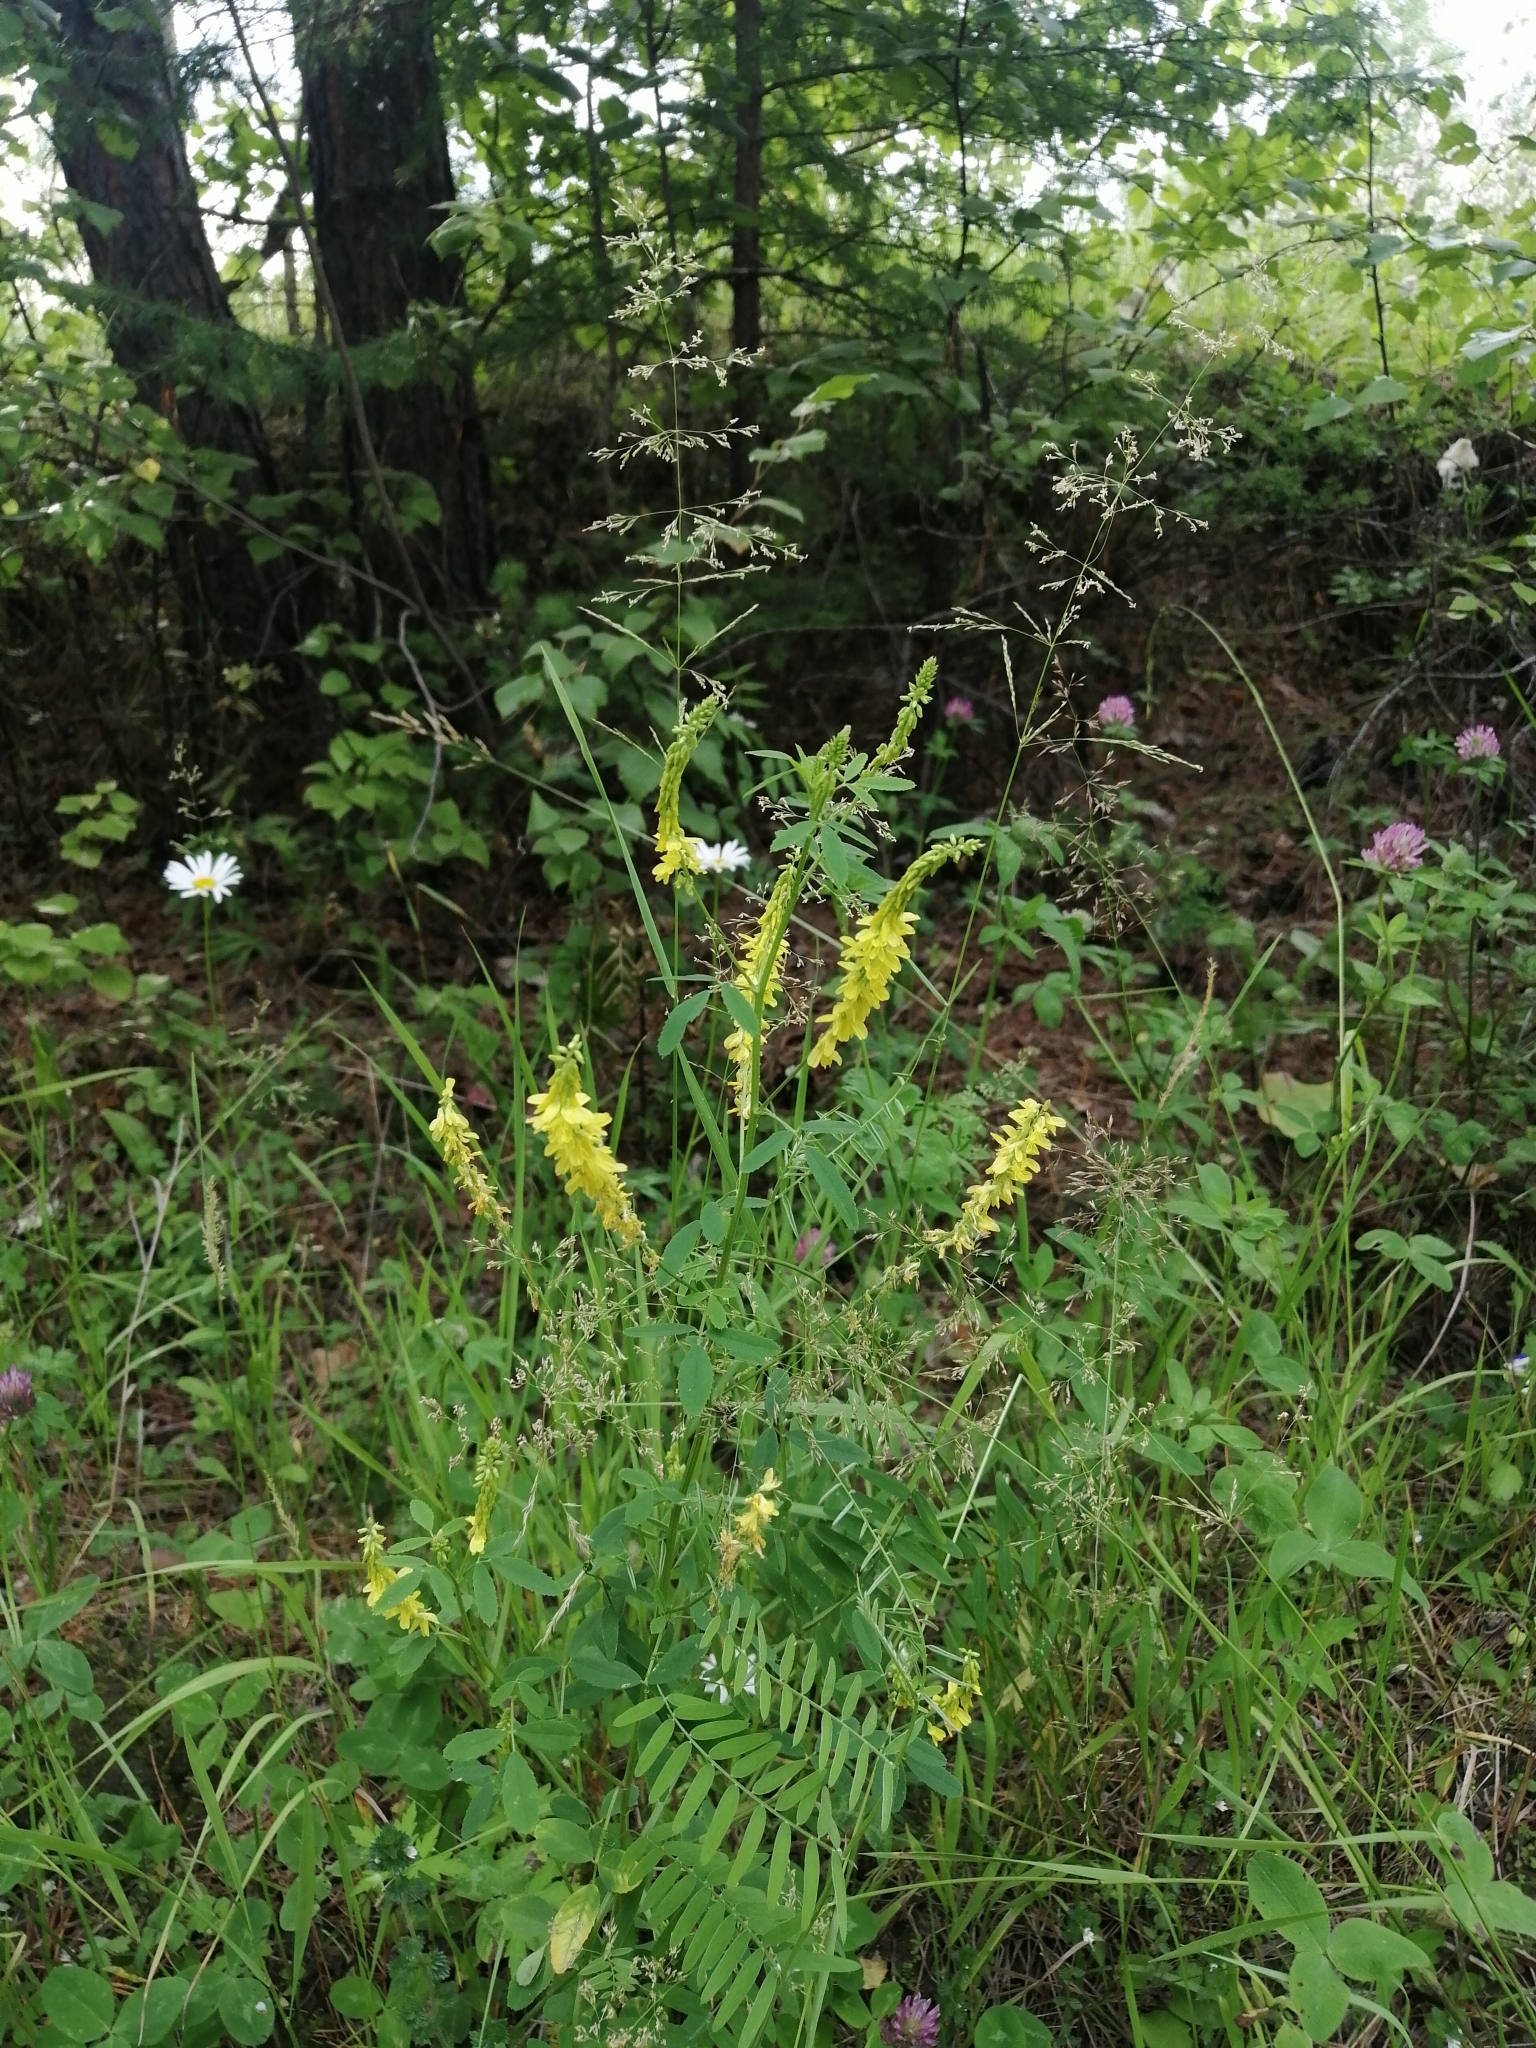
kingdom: Plantae
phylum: Tracheophyta
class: Magnoliopsida
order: Fabales
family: Fabaceae
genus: Melilotus
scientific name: Melilotus officinalis
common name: Sweetclover
